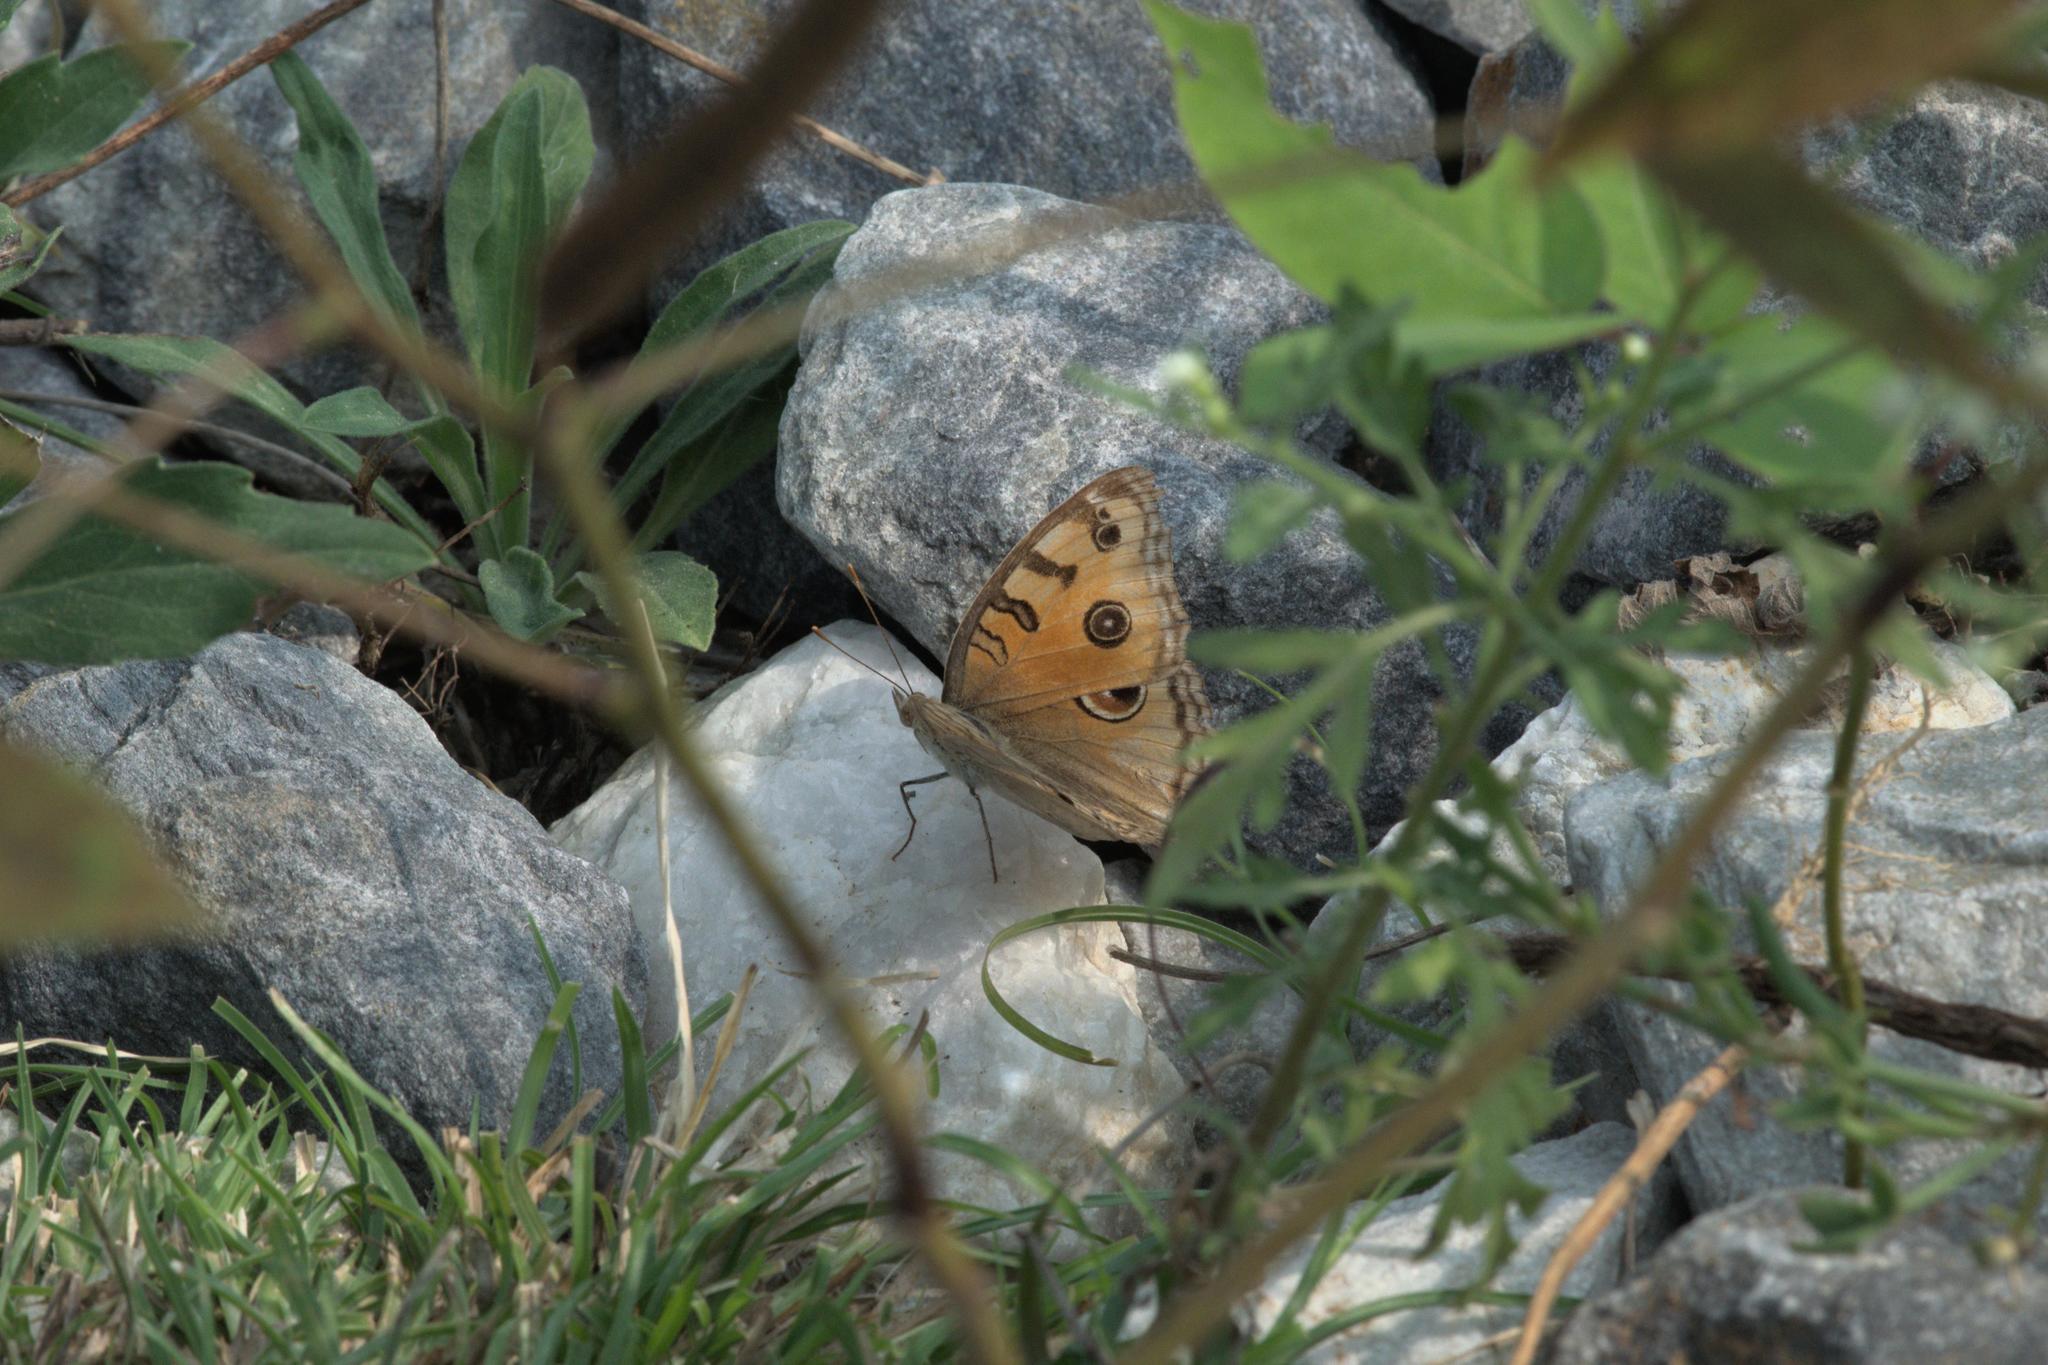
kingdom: Animalia
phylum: Arthropoda
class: Insecta
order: Lepidoptera
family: Nymphalidae
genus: Junonia
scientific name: Junonia almana
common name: Peacock pansy
